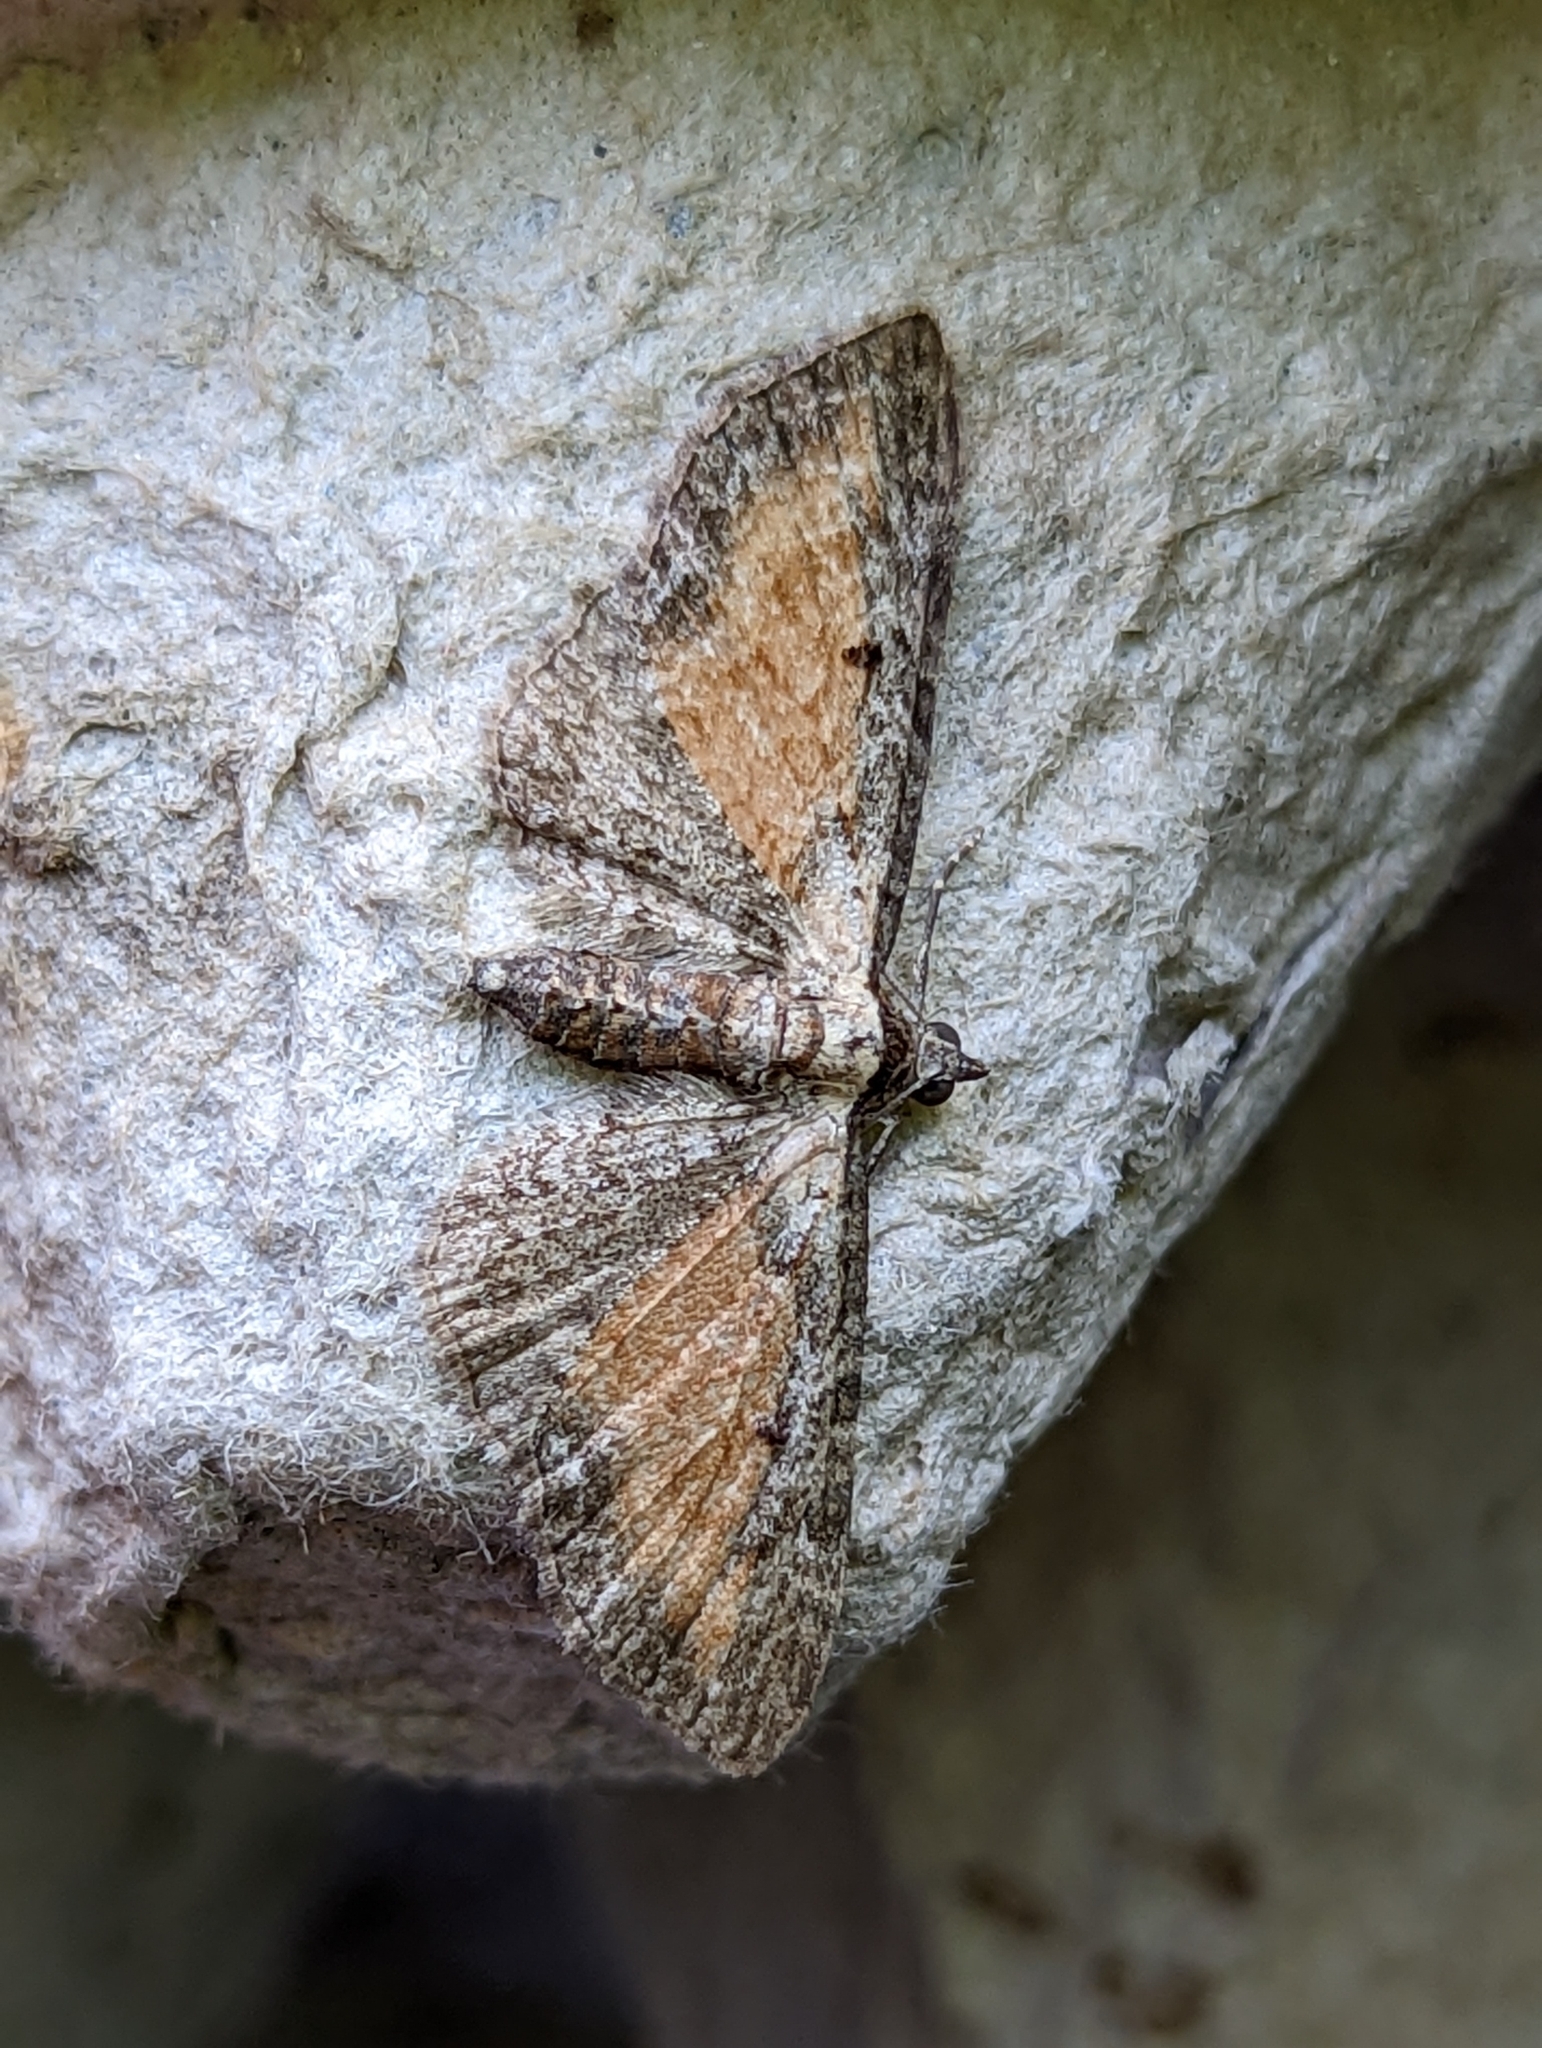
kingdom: Animalia
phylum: Arthropoda
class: Insecta
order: Lepidoptera
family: Geometridae
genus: Eupithecia
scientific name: Eupithecia icterata
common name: Tawny speckled pug
